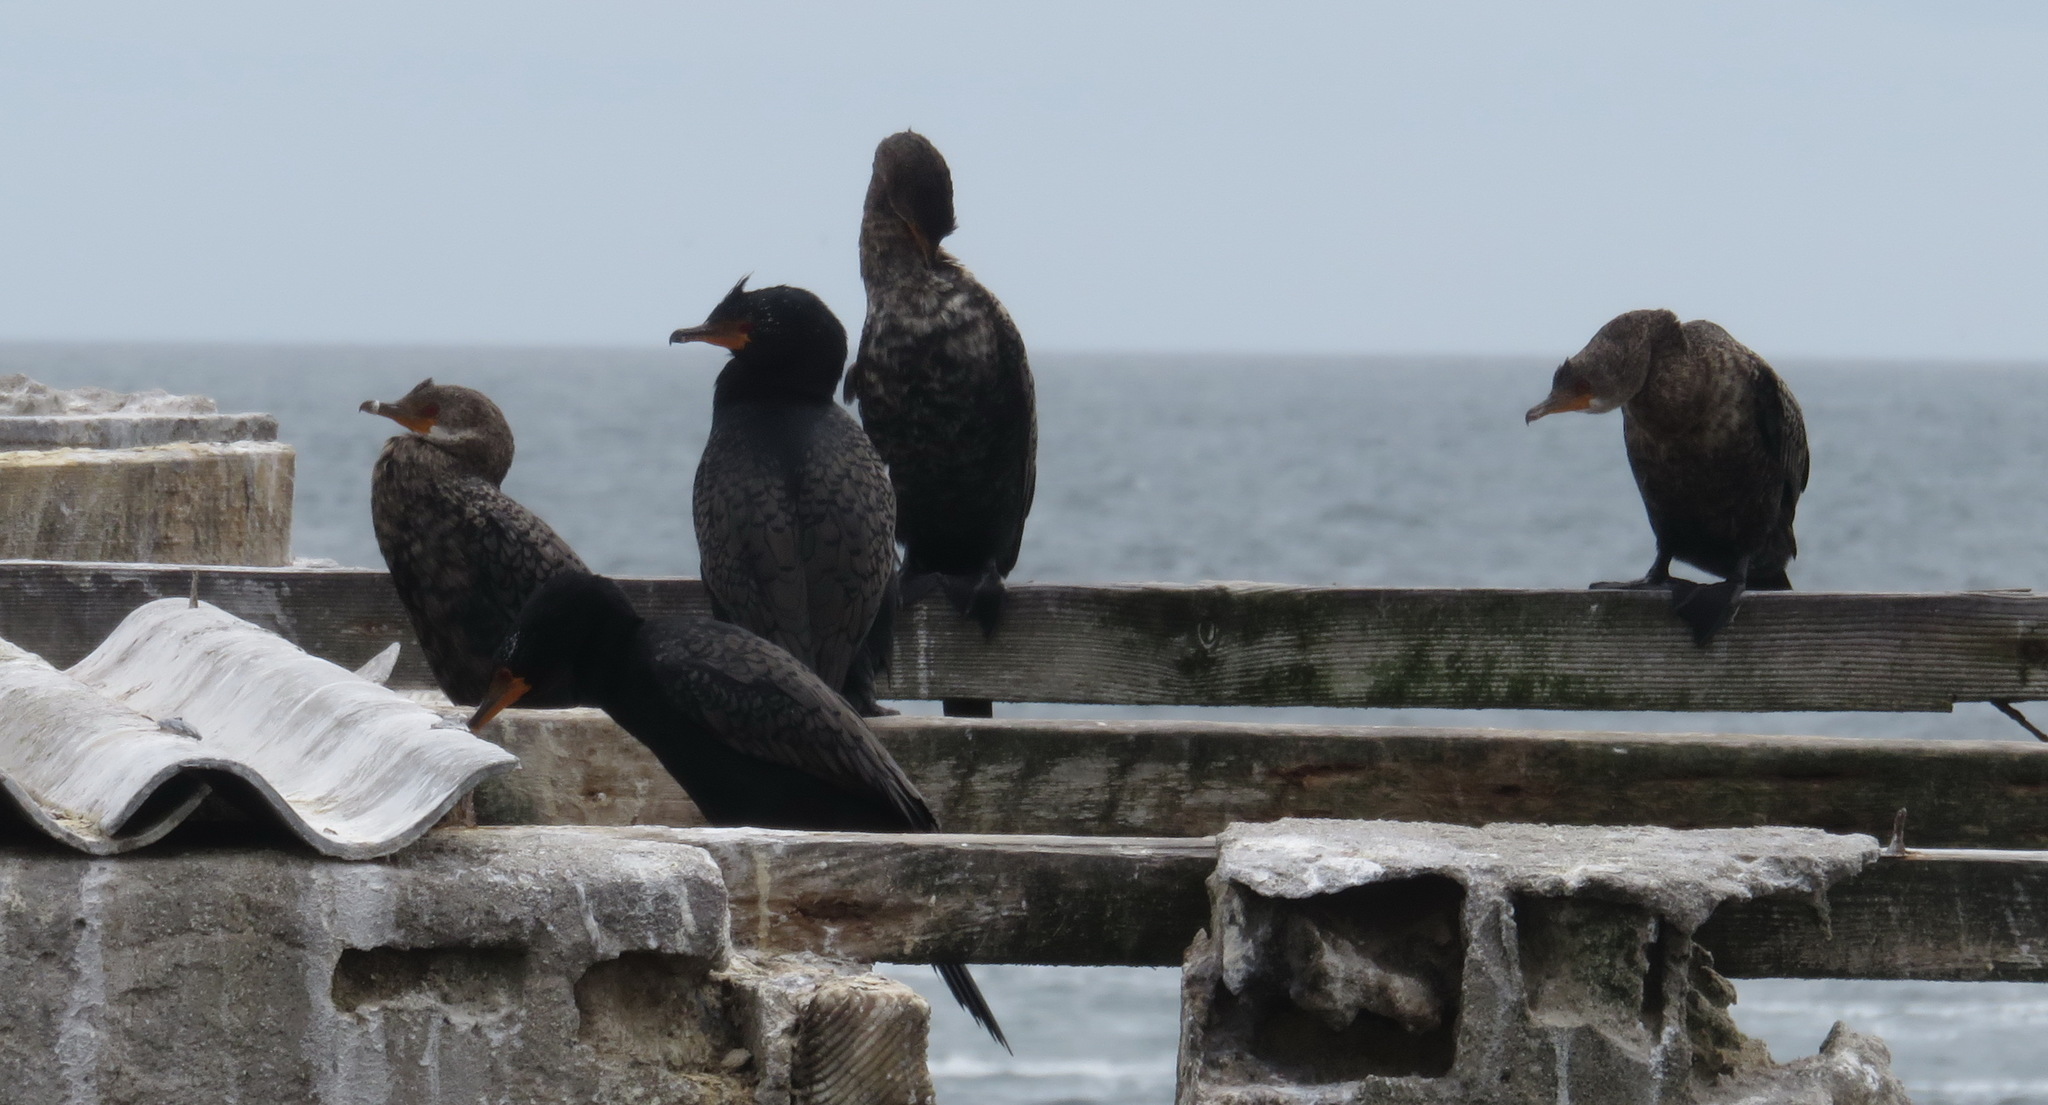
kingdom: Animalia
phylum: Chordata
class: Aves
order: Suliformes
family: Phalacrocoracidae
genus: Phalacrocorax
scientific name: Phalacrocorax capensis
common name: Cape cormorant
